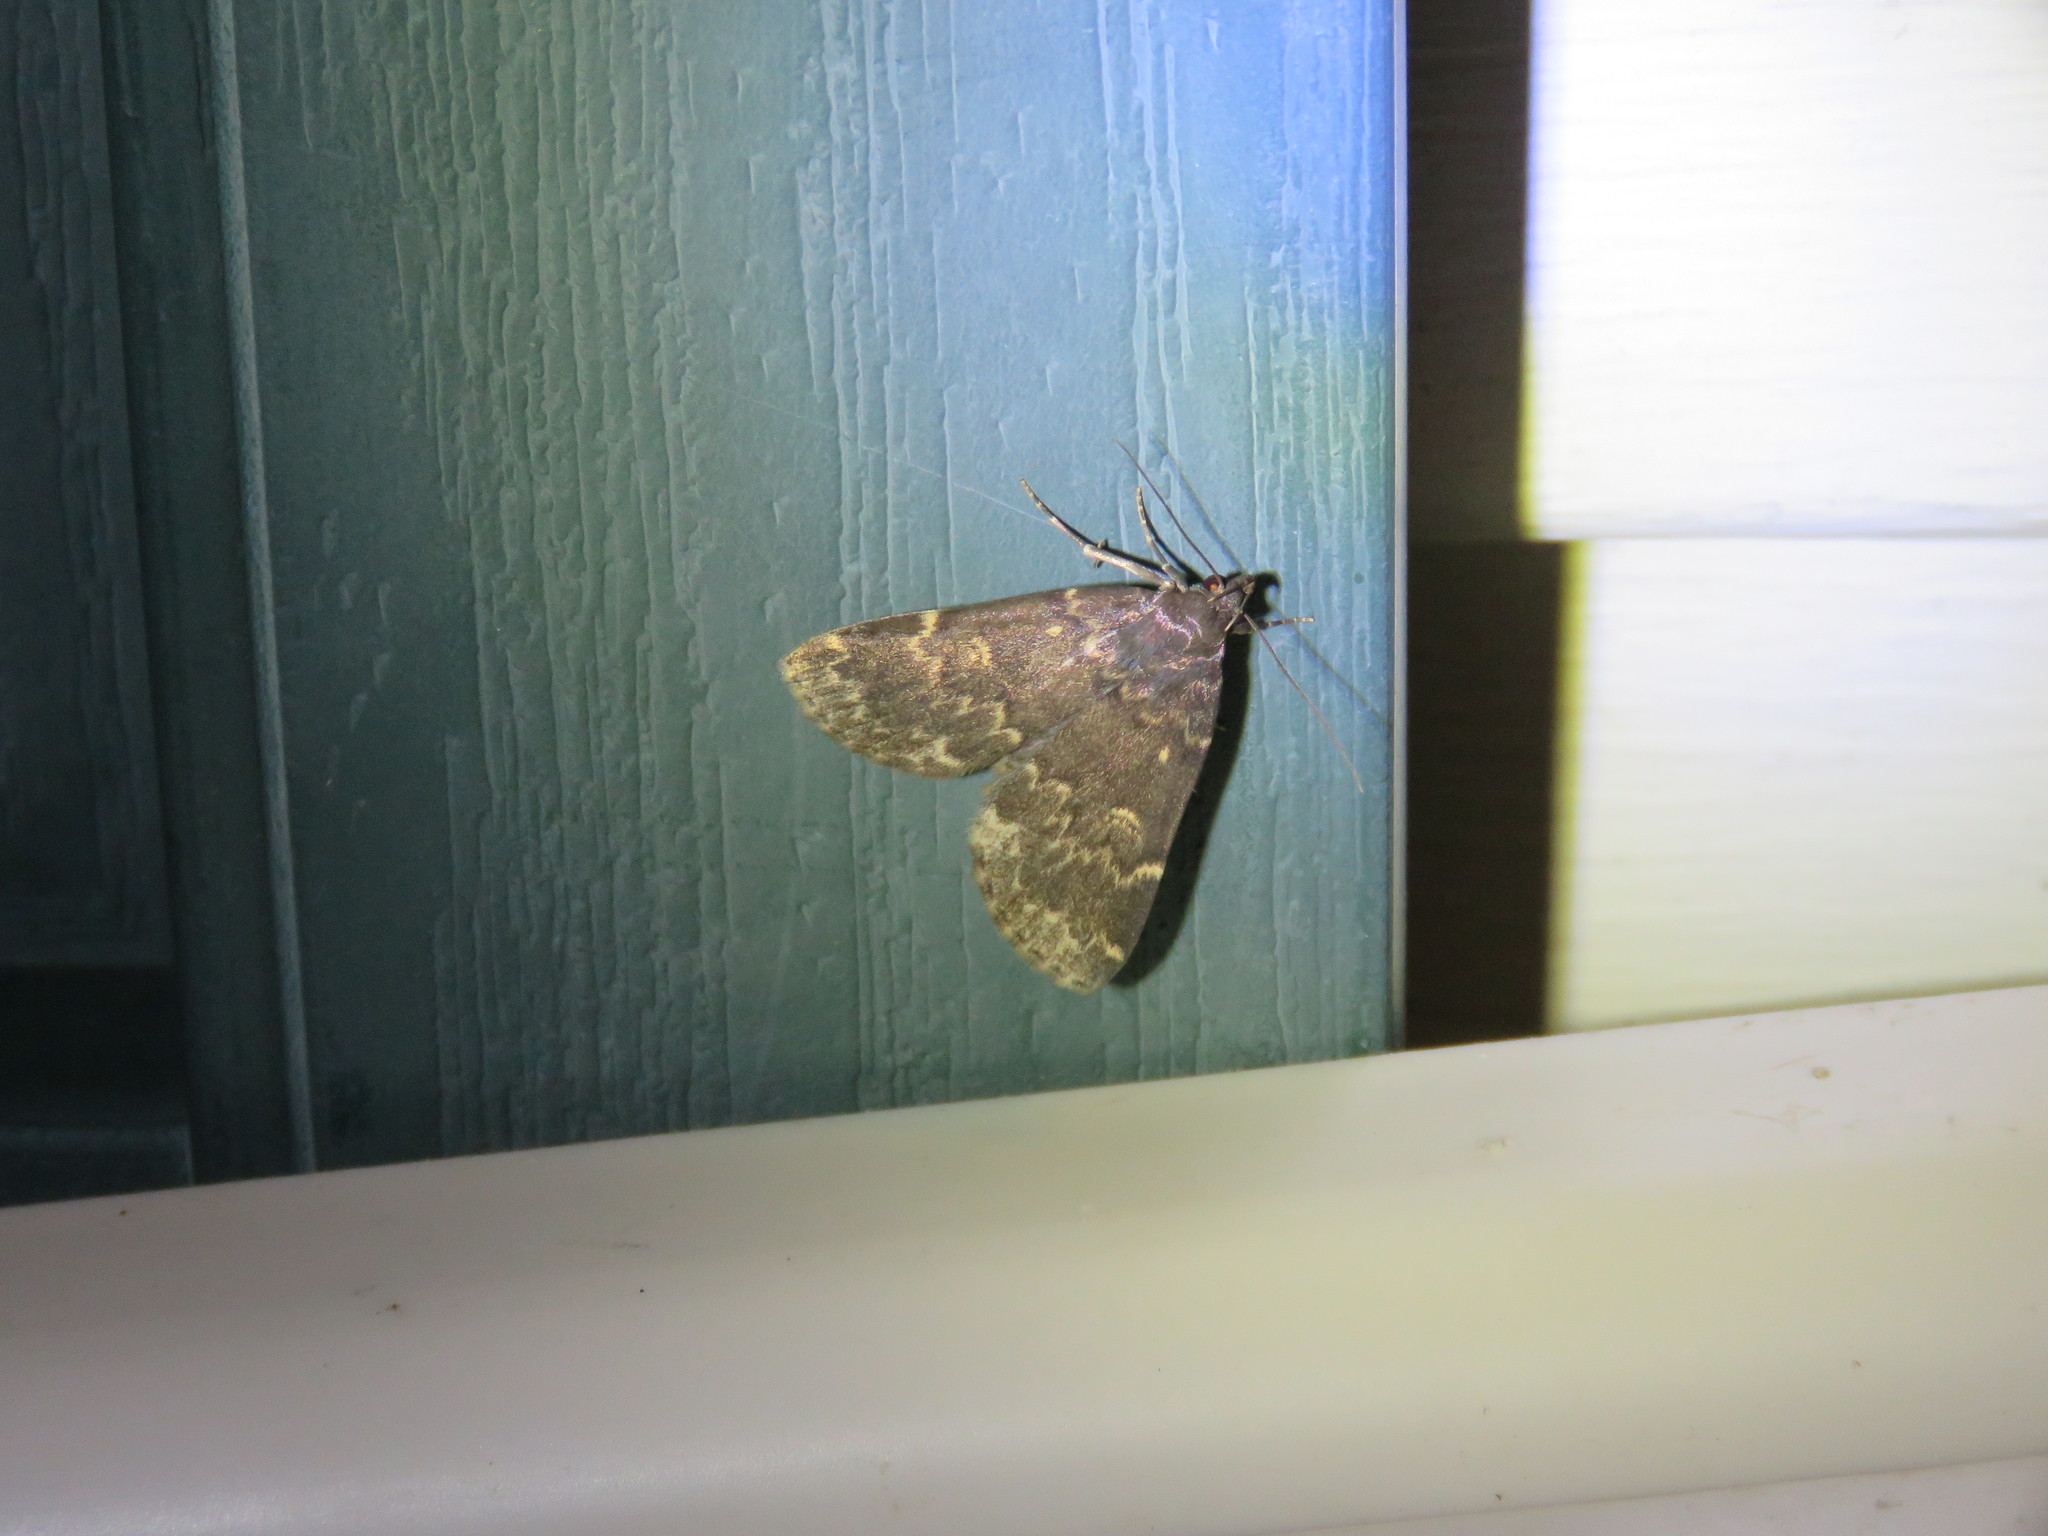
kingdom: Animalia
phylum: Arthropoda
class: Insecta
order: Lepidoptera
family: Erebidae
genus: Idia
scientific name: Idia lubricalis
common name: Twin-striped tabby
